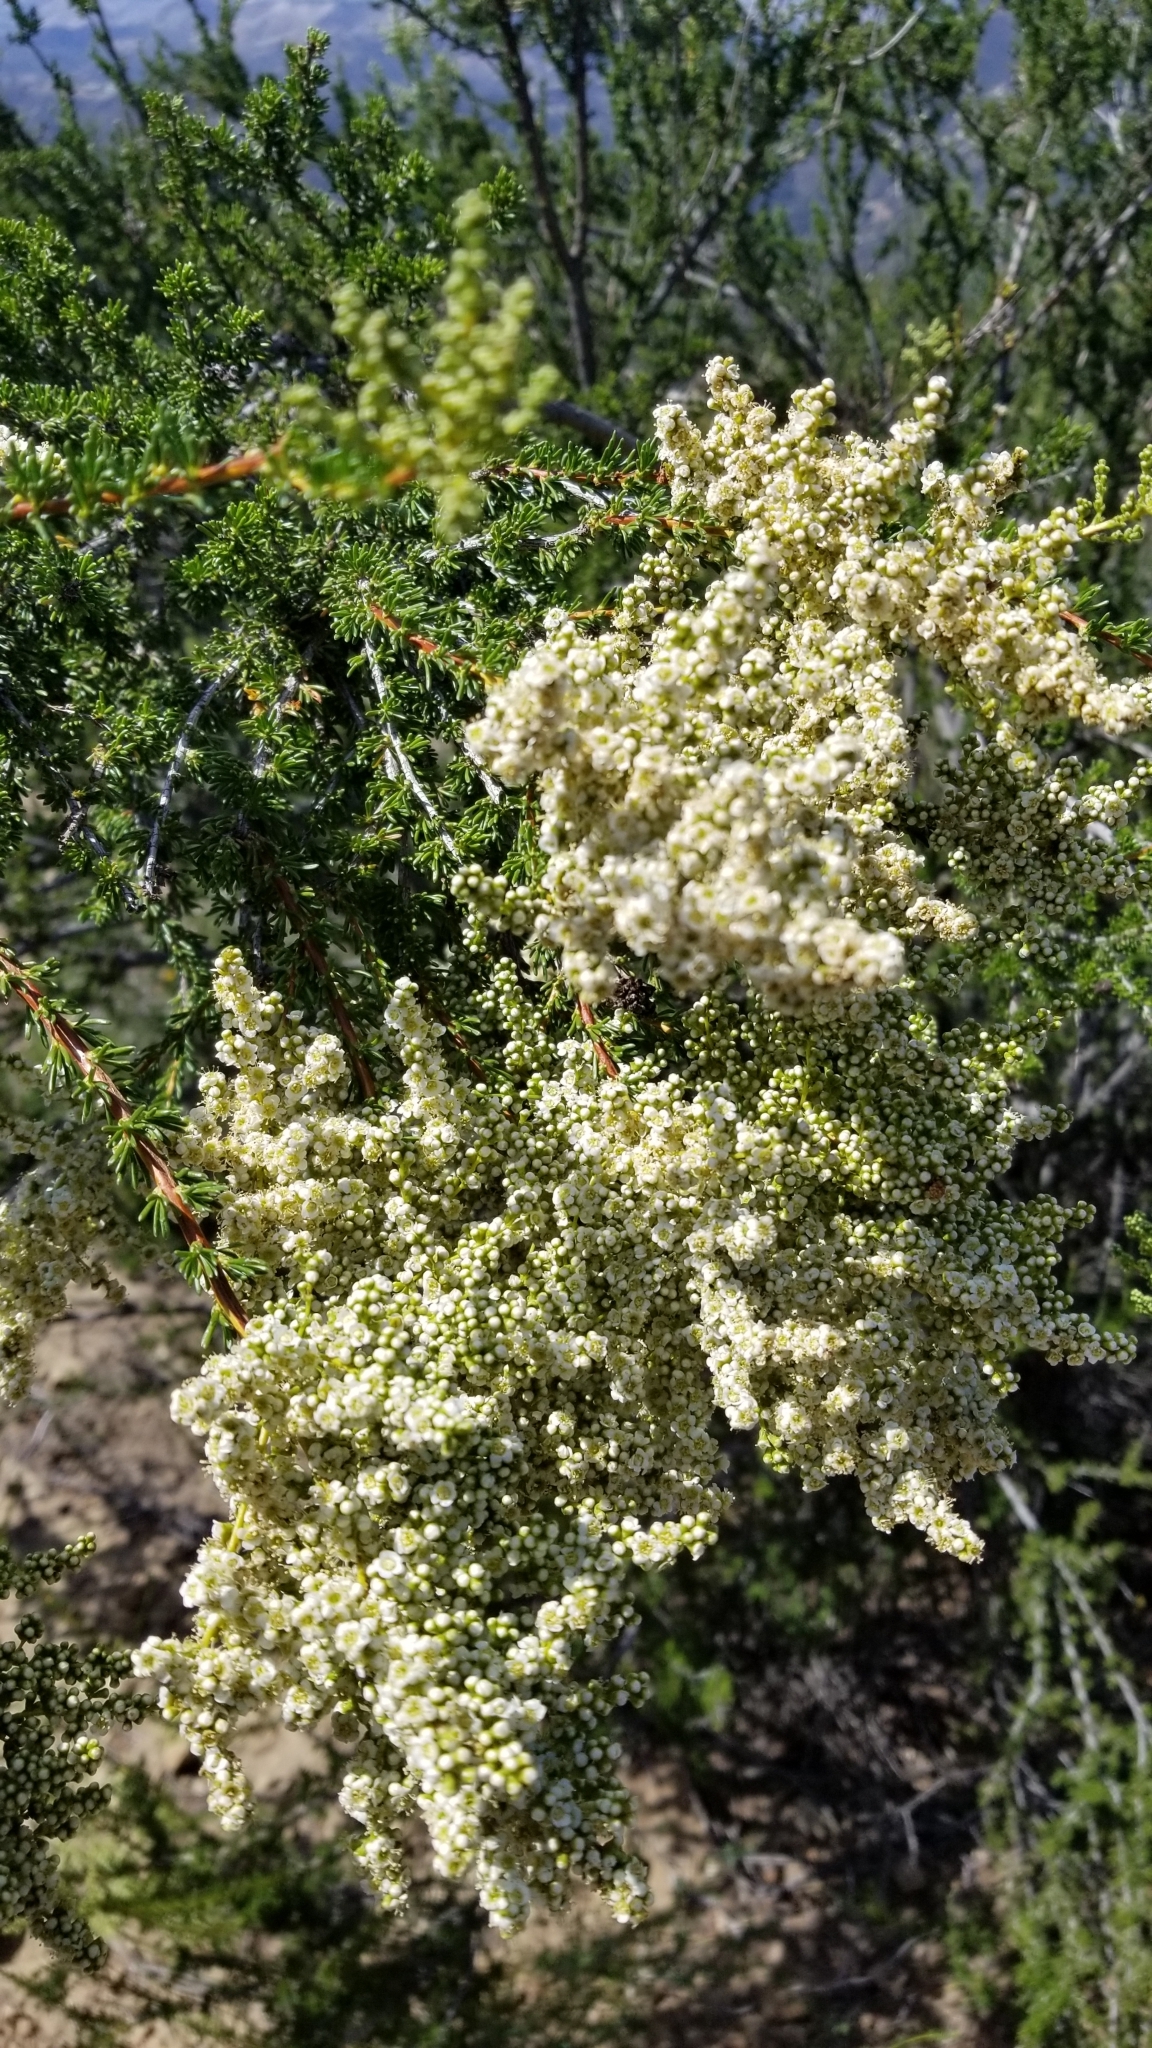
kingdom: Plantae
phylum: Tracheophyta
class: Magnoliopsida
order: Rosales
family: Rosaceae
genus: Adenostoma
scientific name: Adenostoma fasciculatum
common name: Chamise
